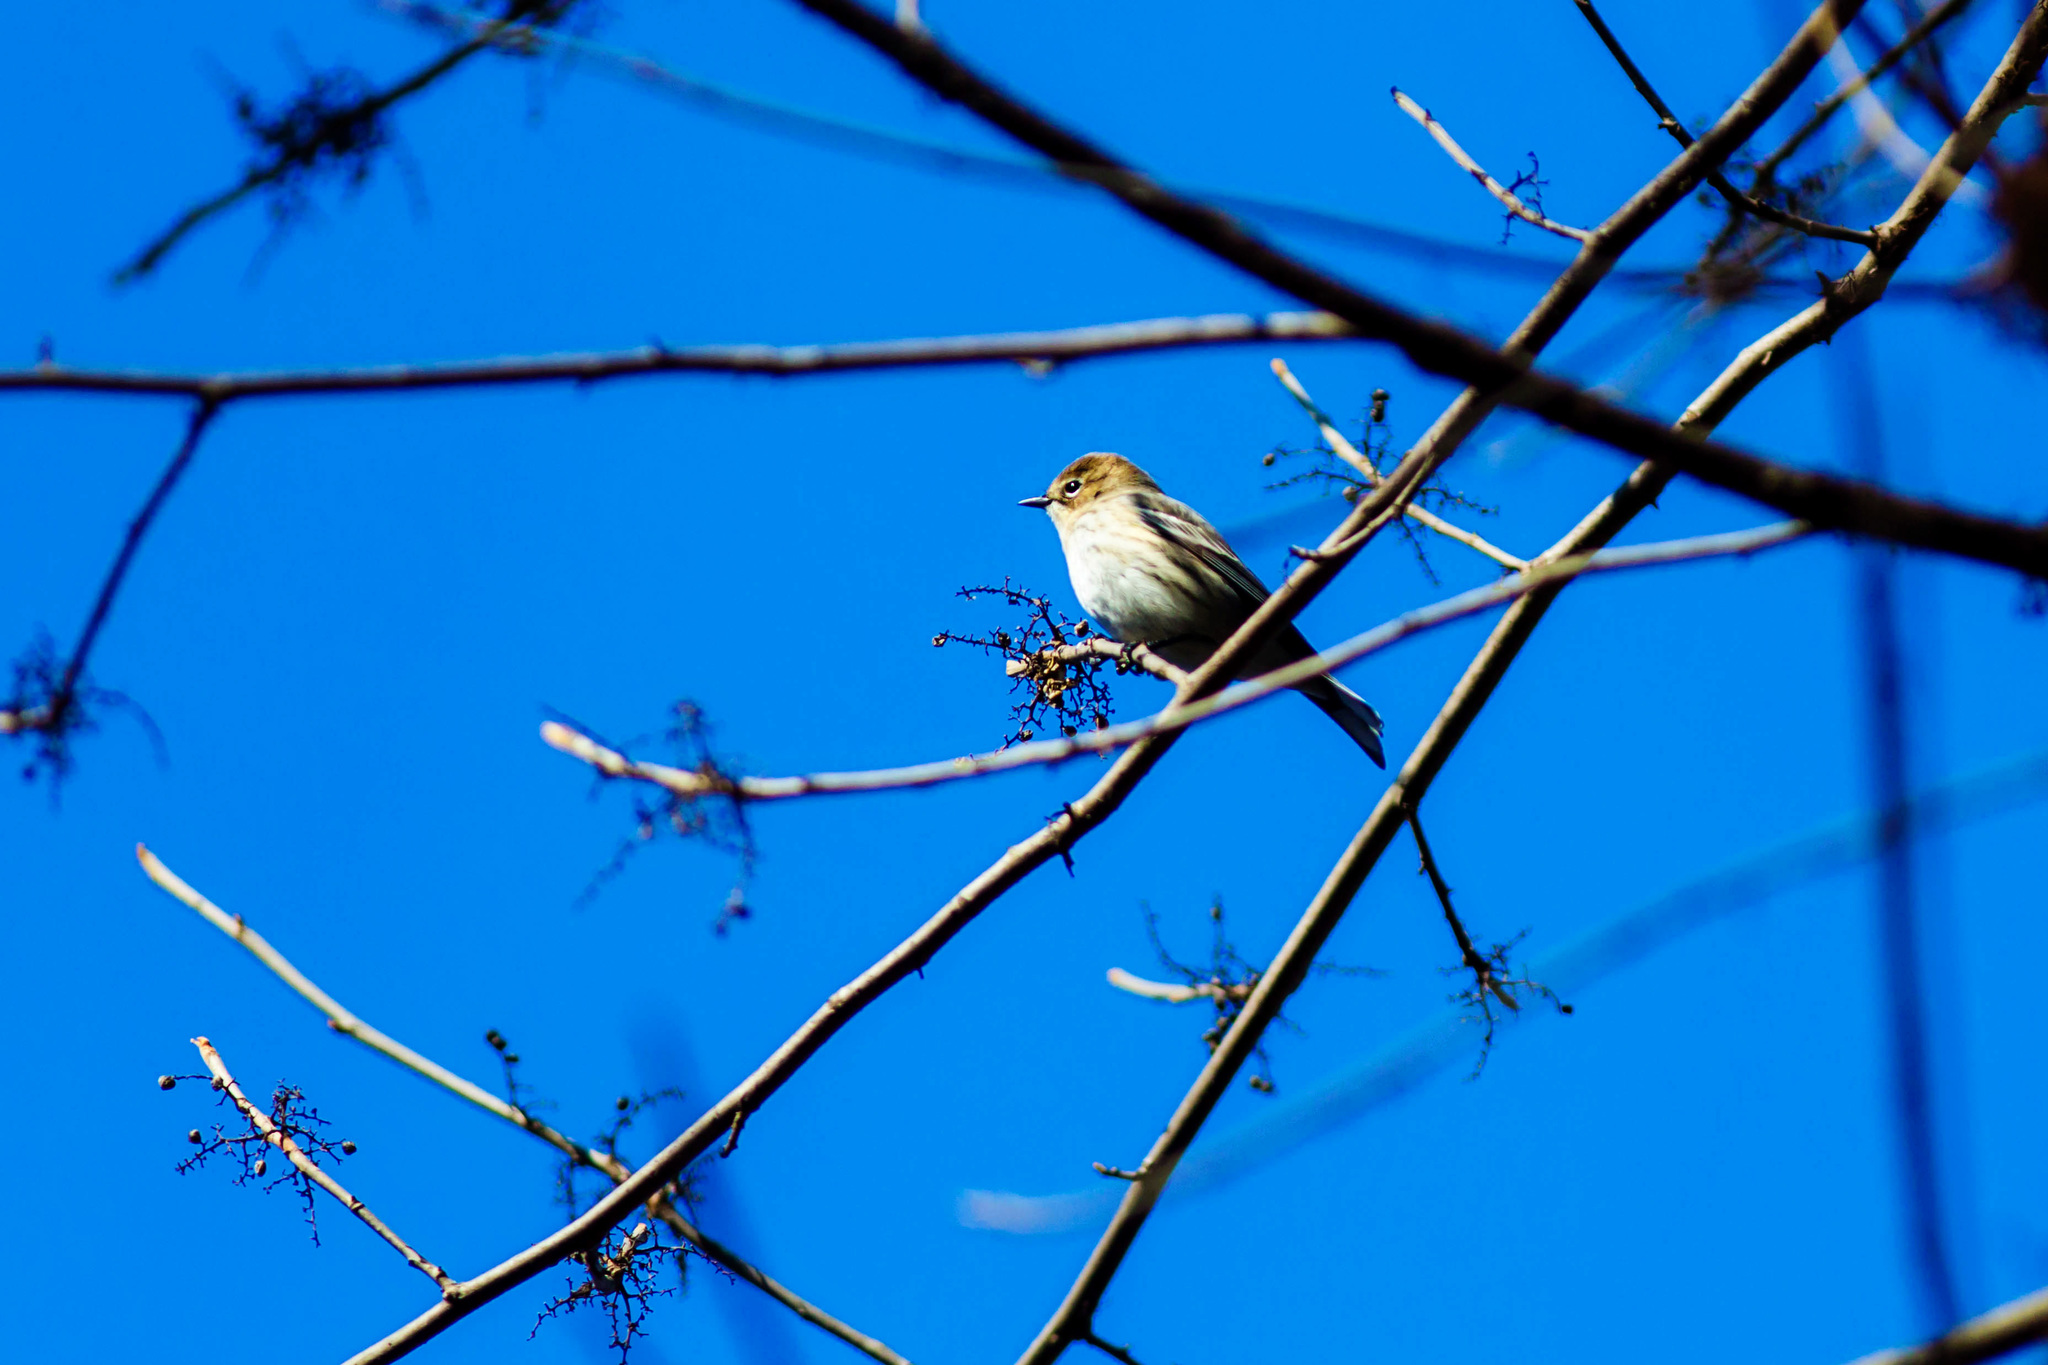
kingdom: Animalia
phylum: Chordata
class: Aves
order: Passeriformes
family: Parulidae
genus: Setophaga
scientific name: Setophaga coronata
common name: Myrtle warbler
